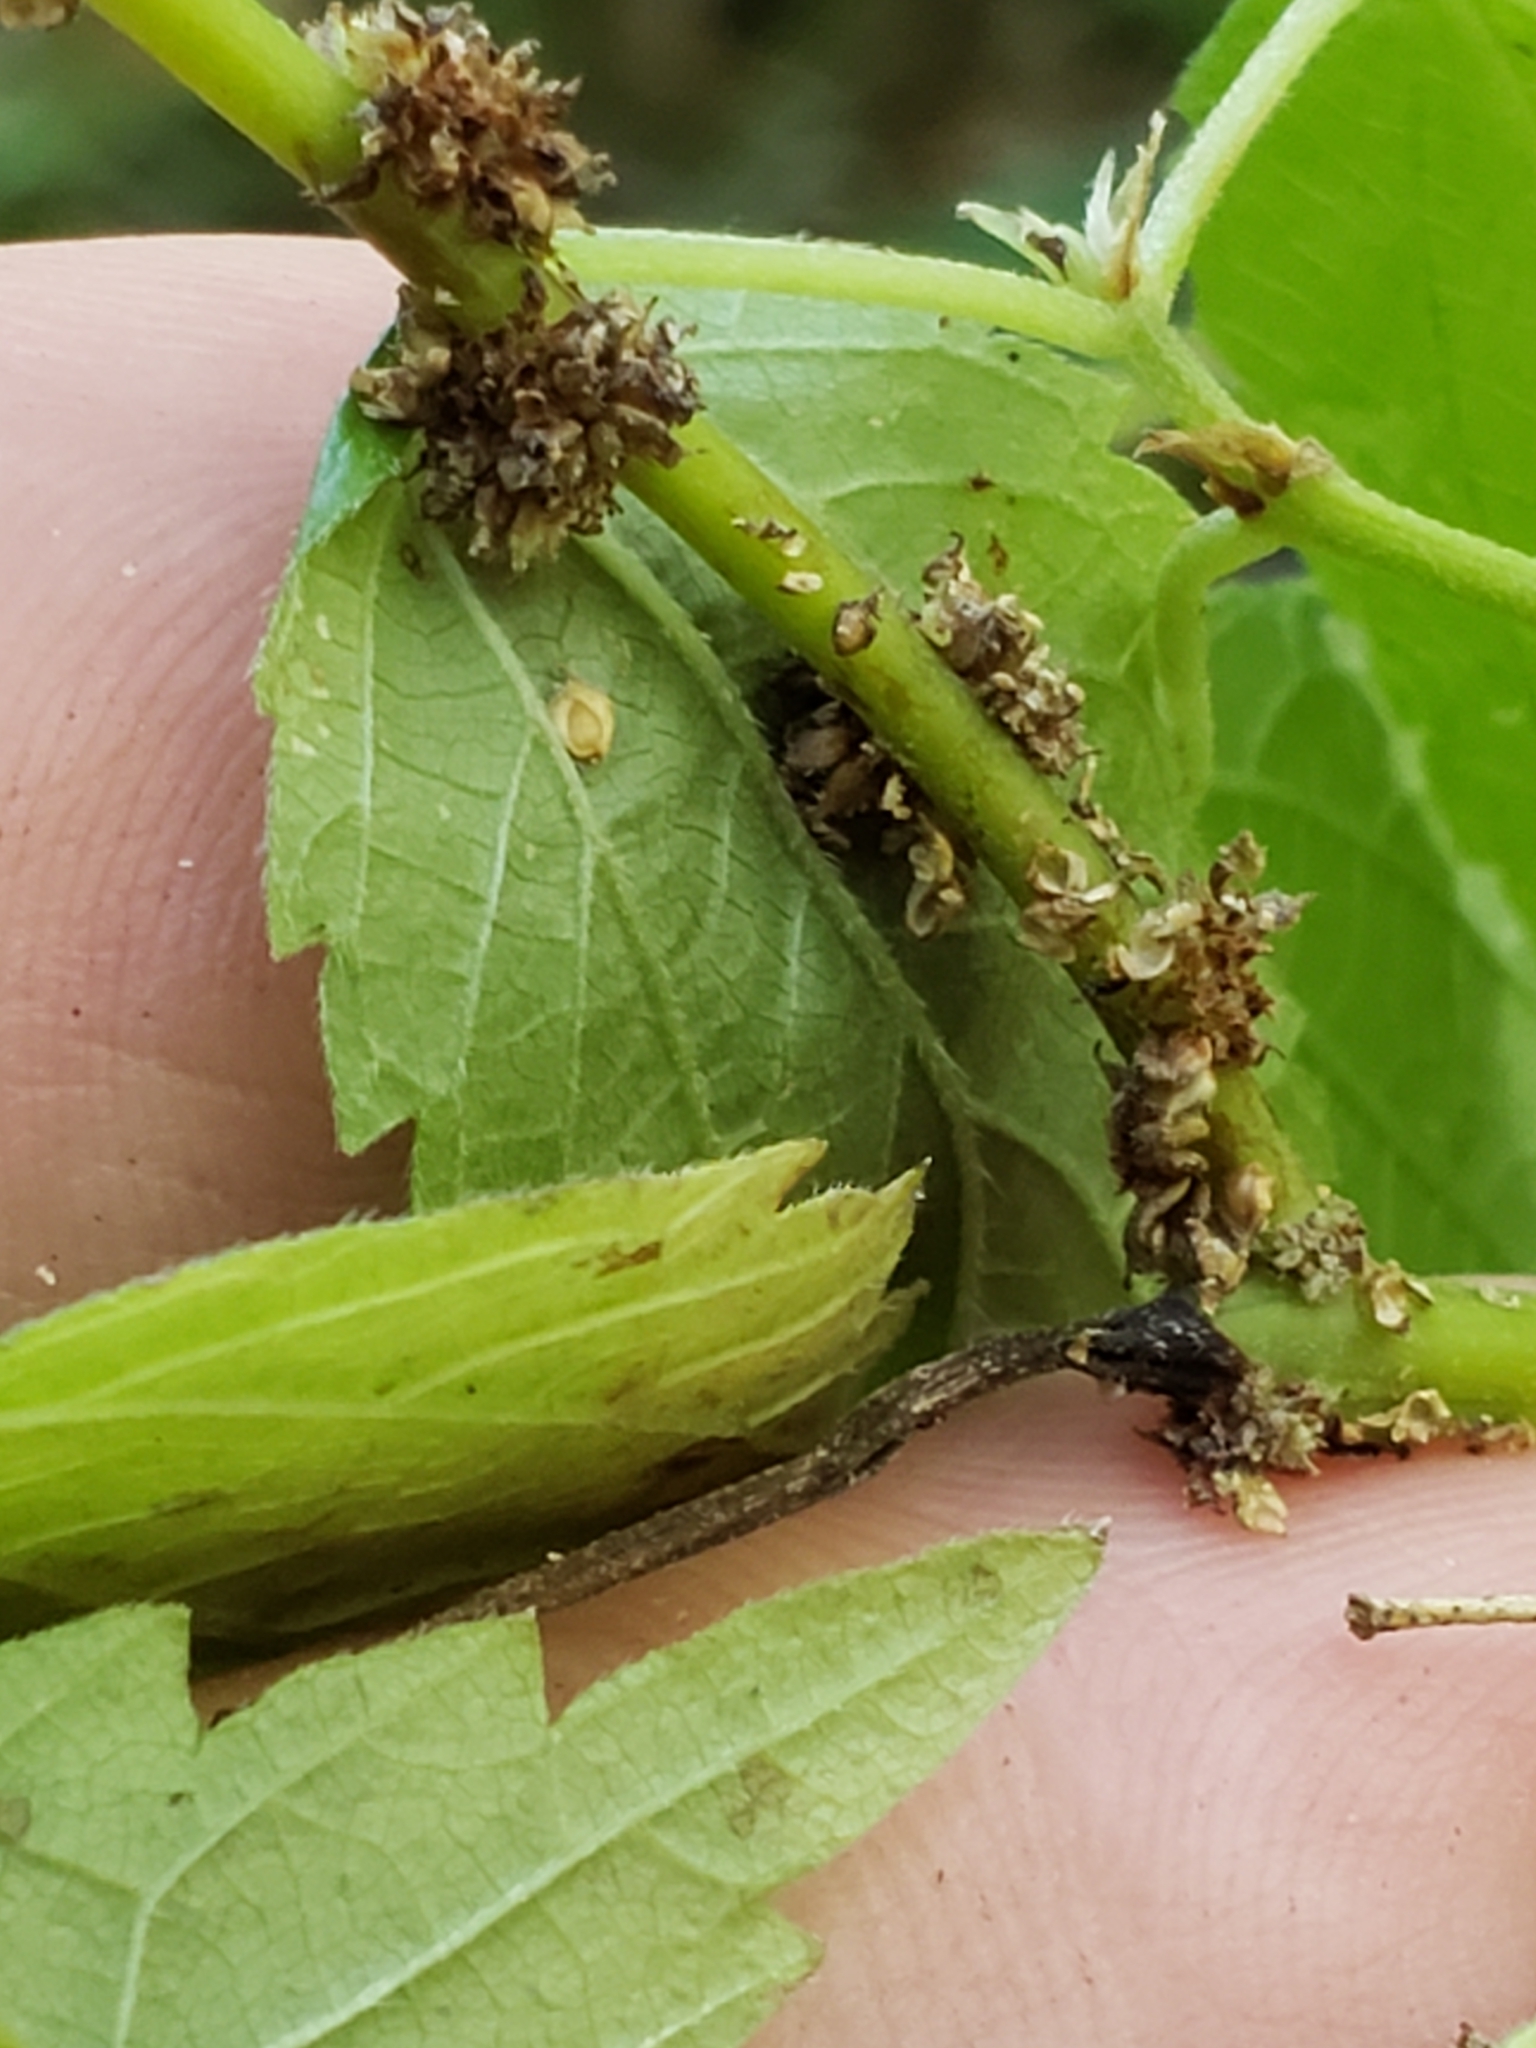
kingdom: Animalia
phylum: Arthropoda
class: Insecta
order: Diptera
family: Cecidomyiidae
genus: Neolasioptera
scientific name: Neolasioptera boehmeriae
